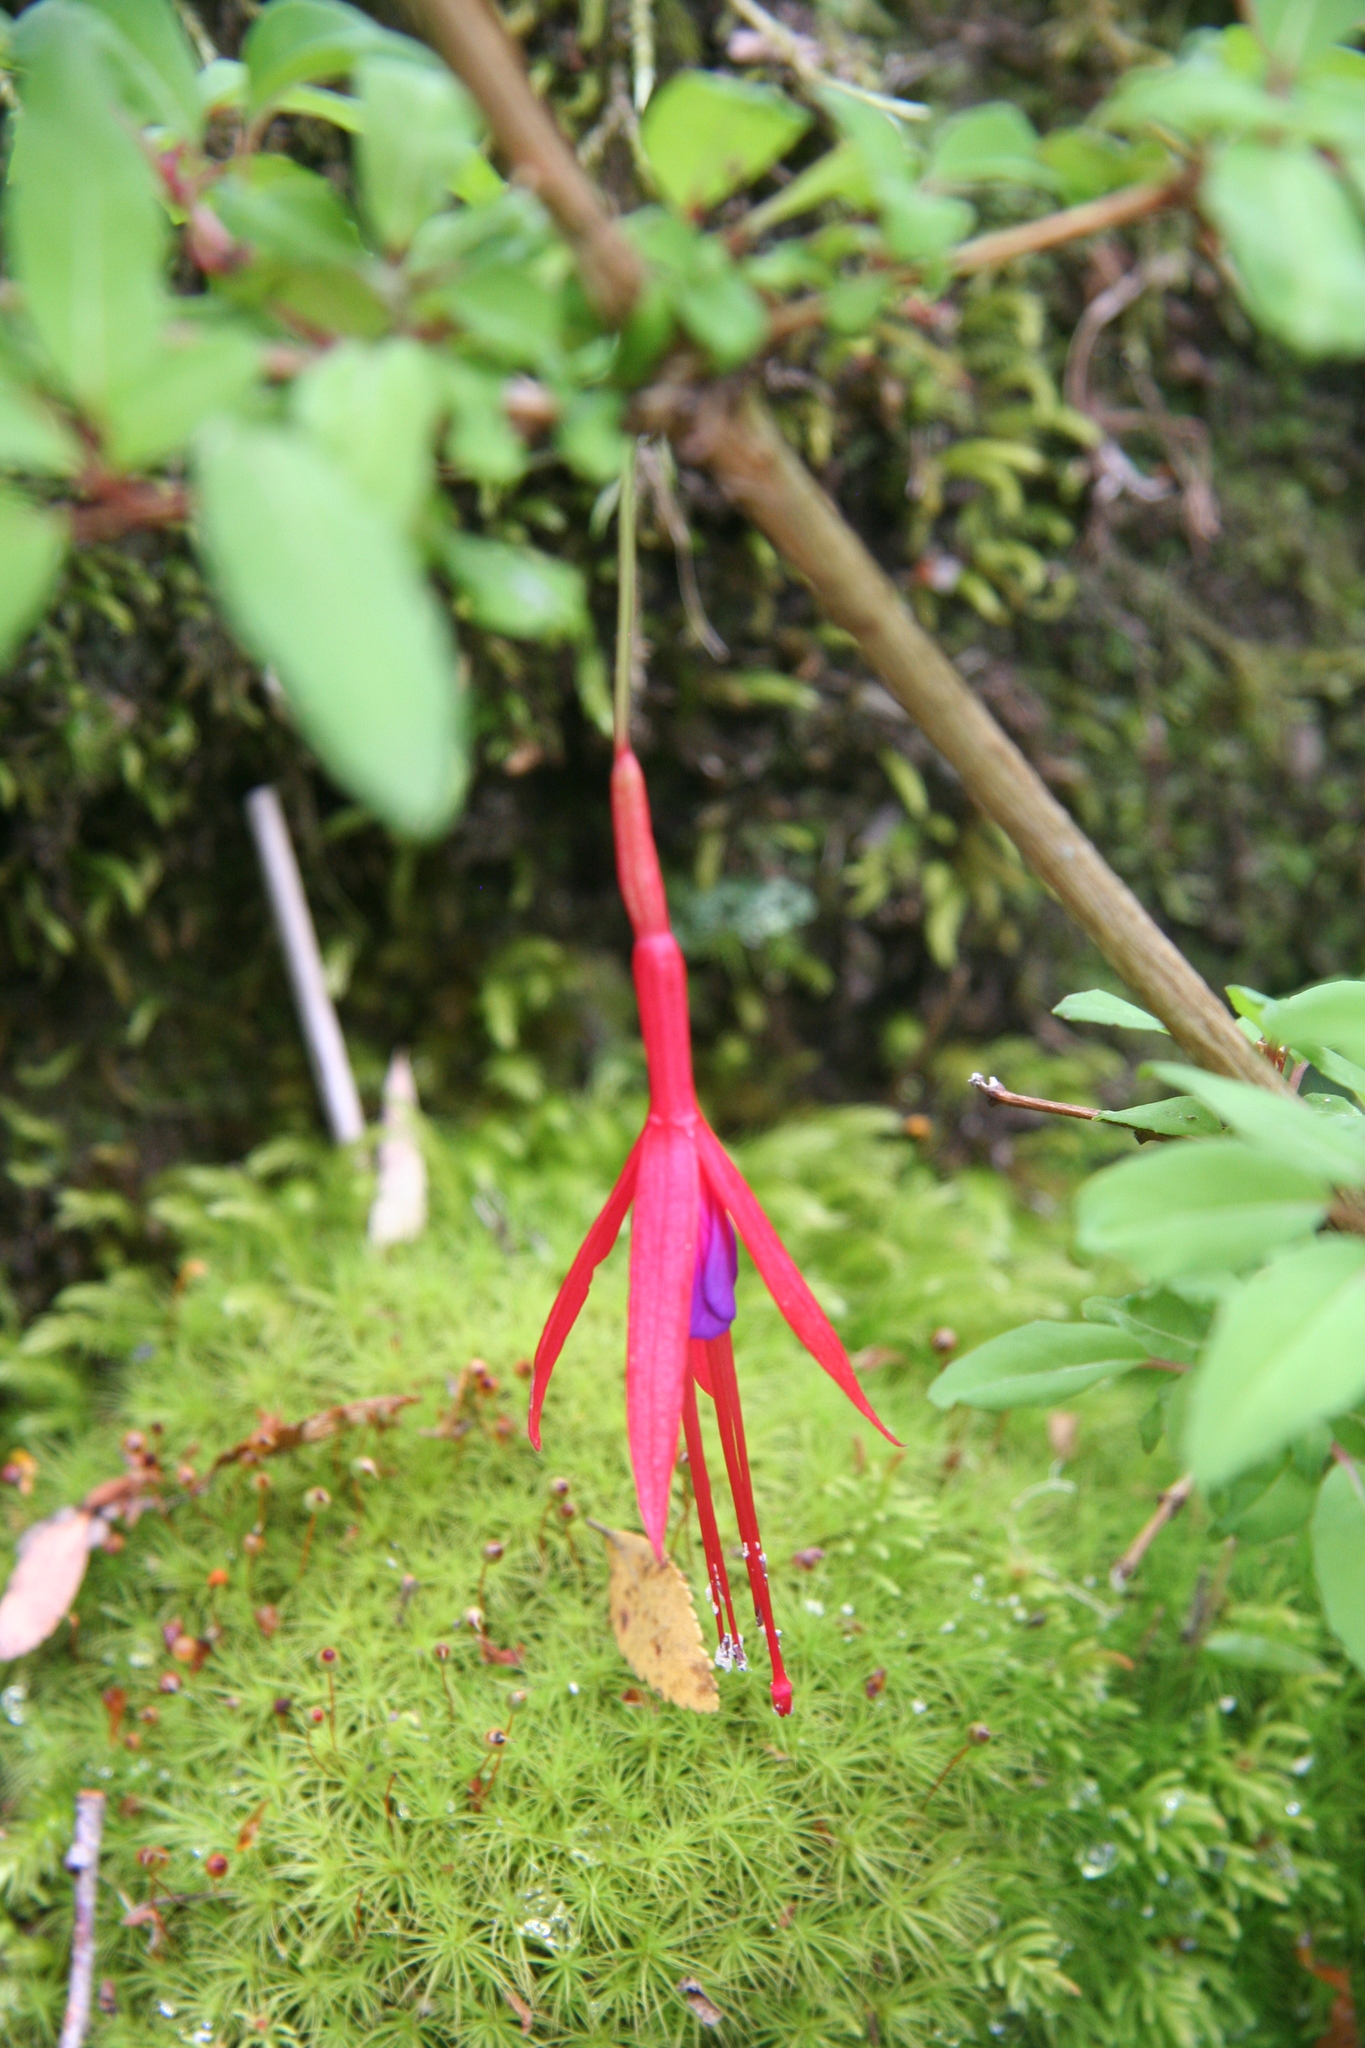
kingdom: Plantae
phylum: Tracheophyta
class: Magnoliopsida
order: Myrtales
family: Onagraceae
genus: Fuchsia
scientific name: Fuchsia magellanica
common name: Hardy fuchsia
